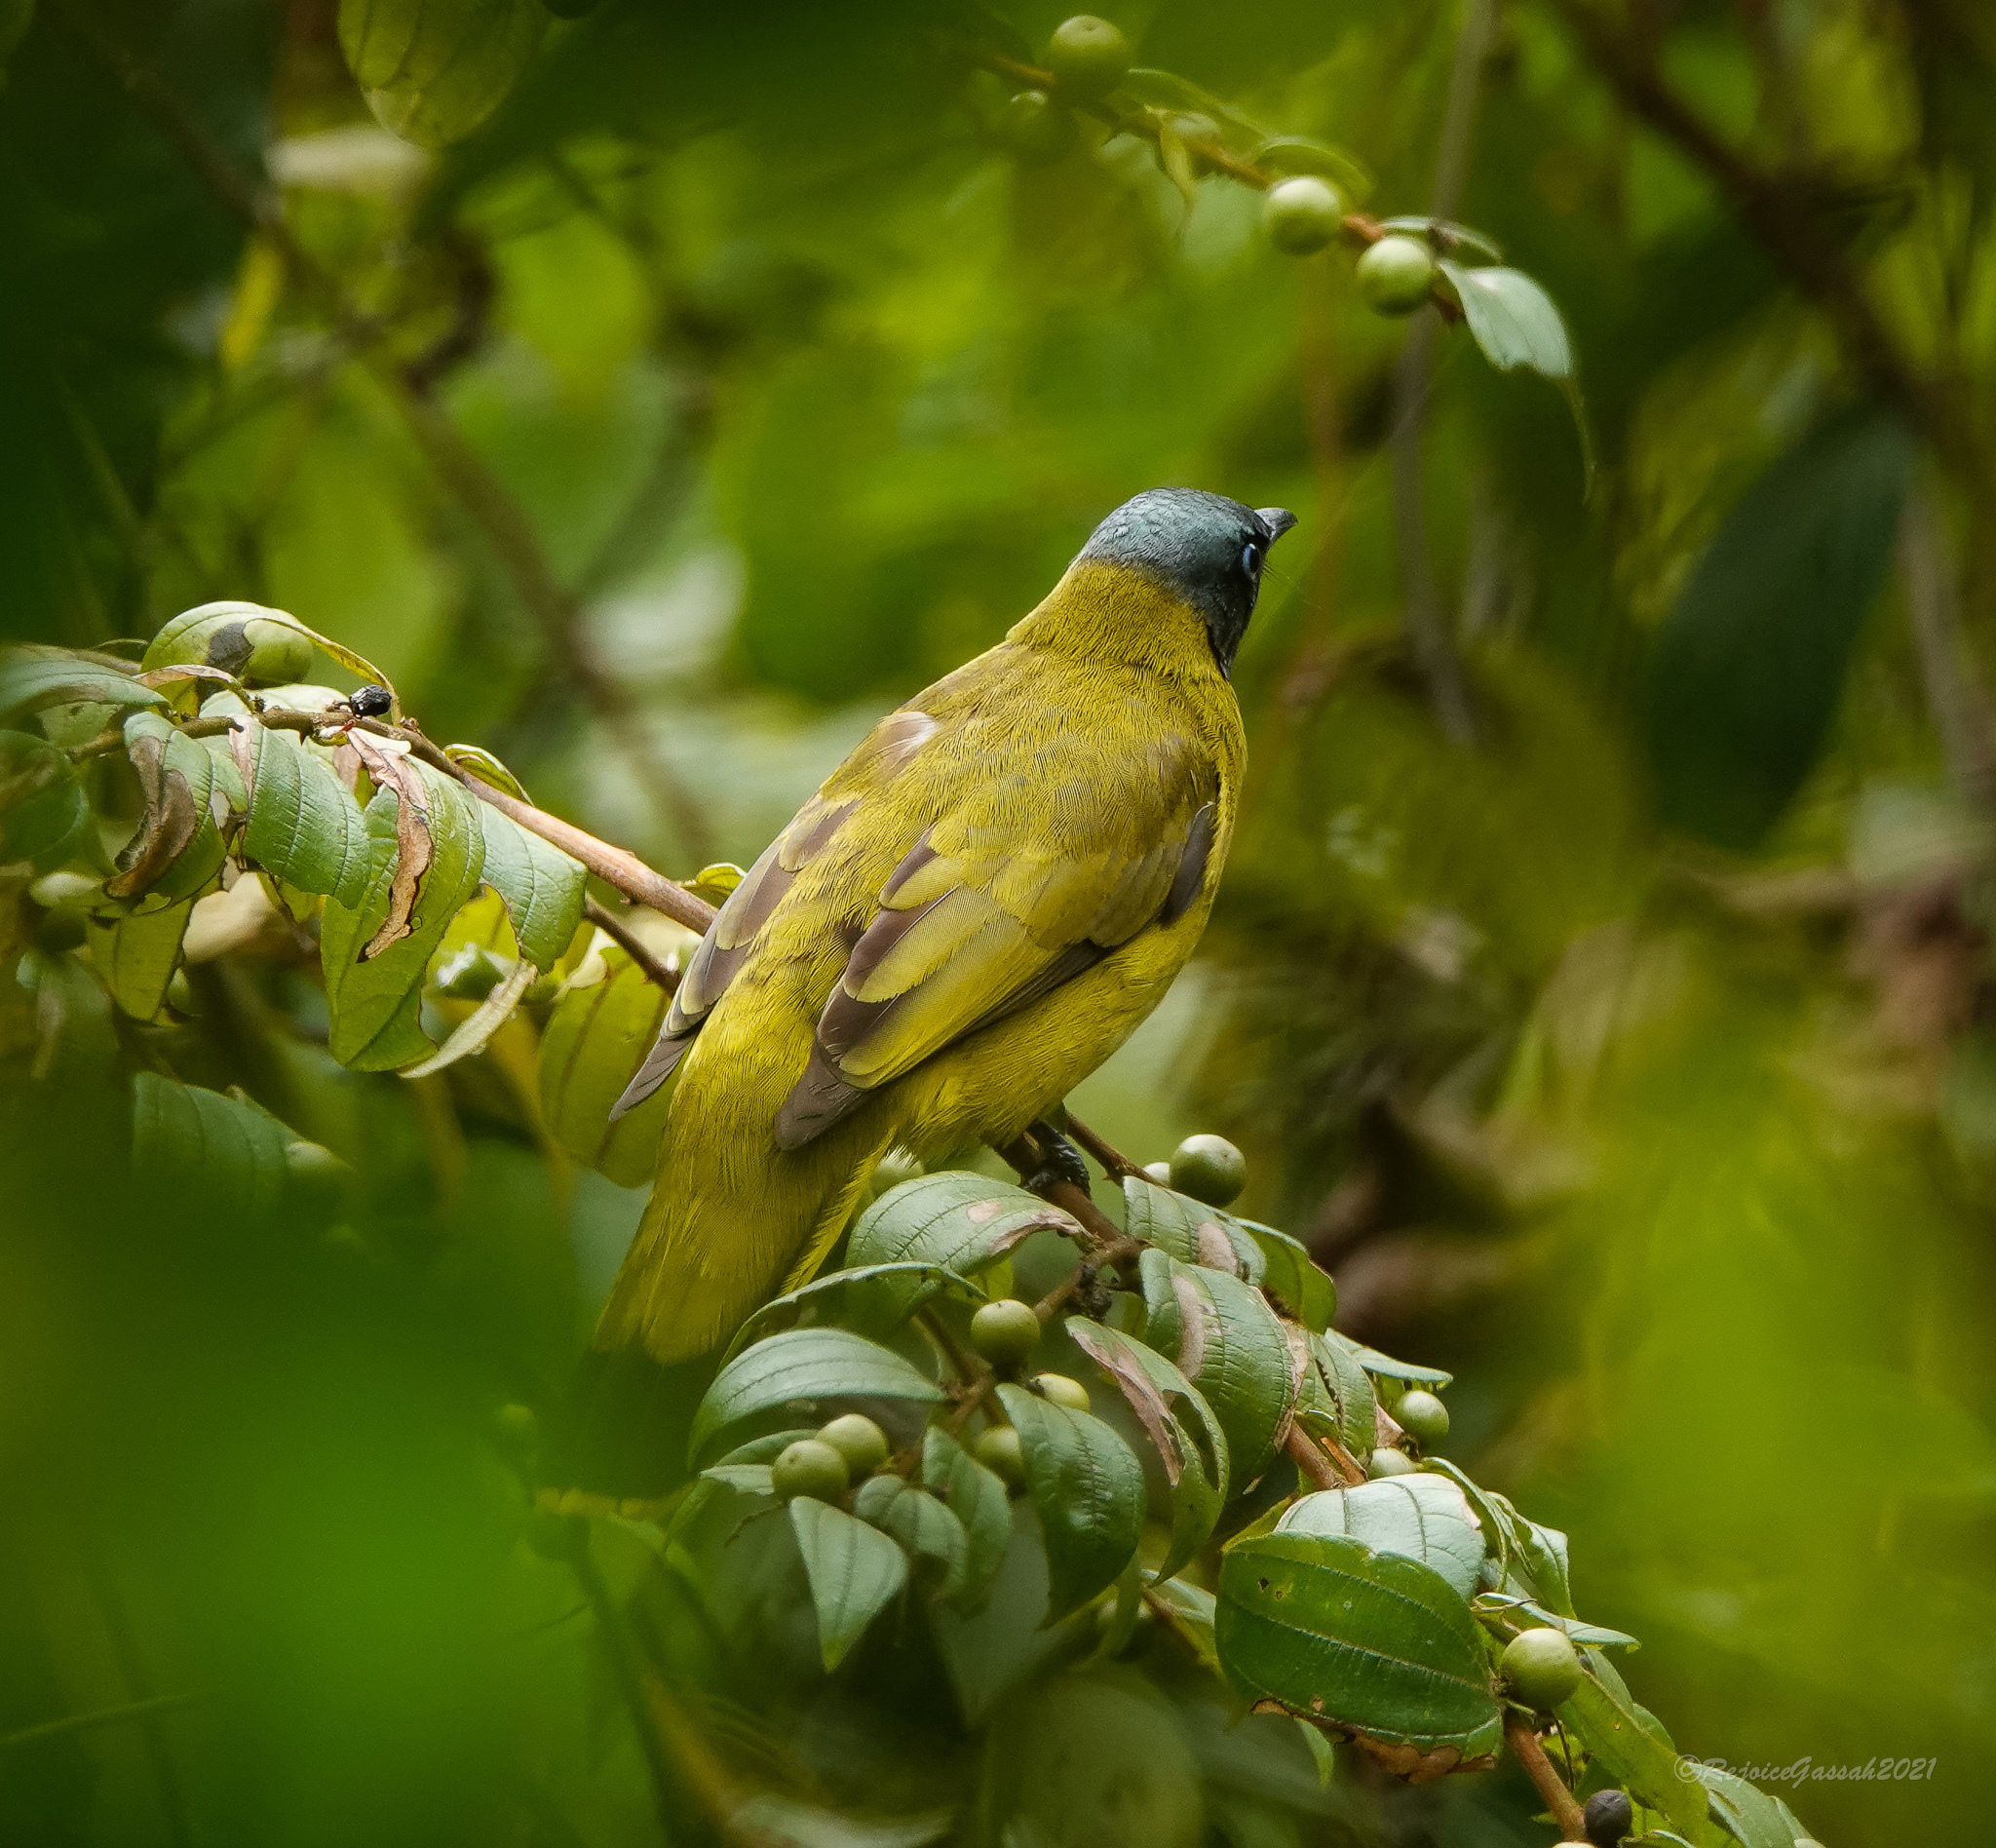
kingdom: Animalia
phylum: Chordata
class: Aves
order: Passeriformes
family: Pycnonotidae
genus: Microtarsus
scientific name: Microtarsus
